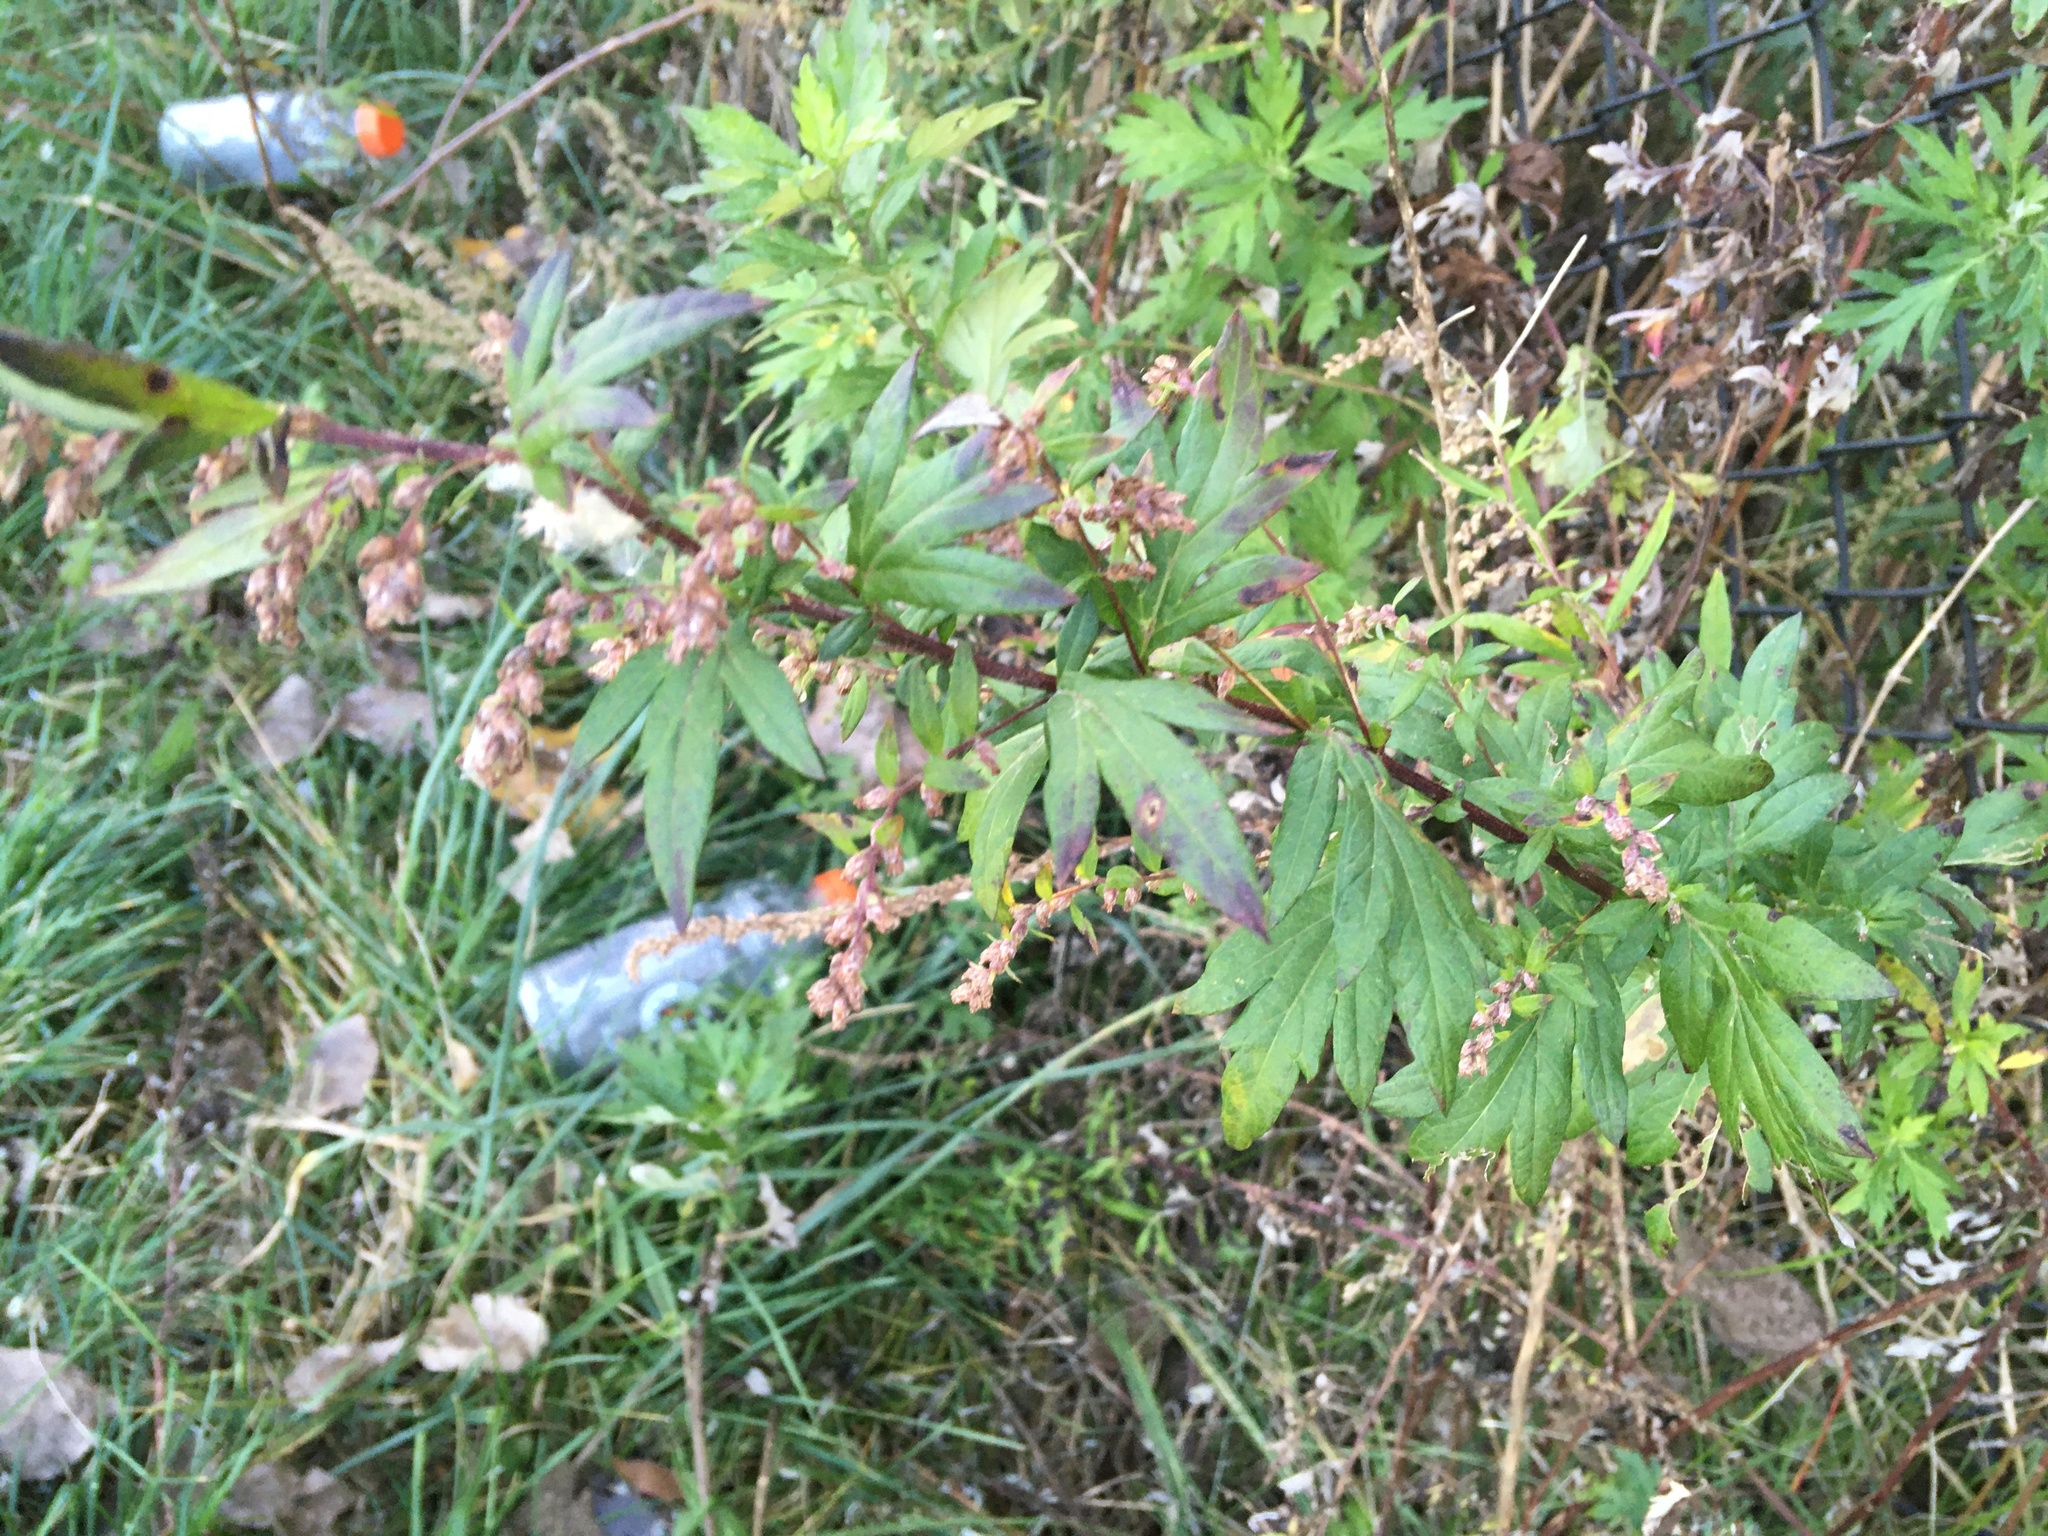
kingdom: Plantae
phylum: Tracheophyta
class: Magnoliopsida
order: Asterales
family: Asteraceae
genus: Artemisia
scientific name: Artemisia vulgaris
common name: Mugwort
